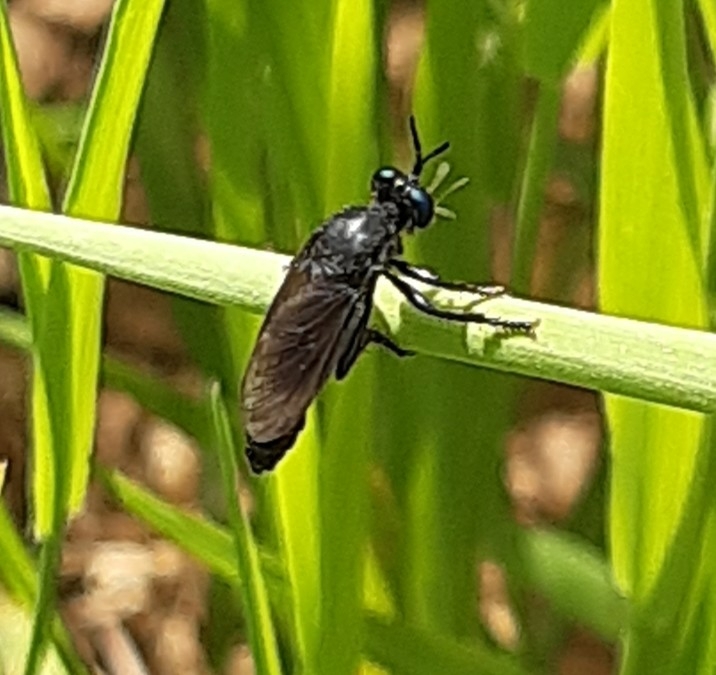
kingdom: Animalia
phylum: Arthropoda
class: Insecta
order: Diptera
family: Asilidae
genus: Dioctria
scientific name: Dioctria atricapilla
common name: Violet black-legged
